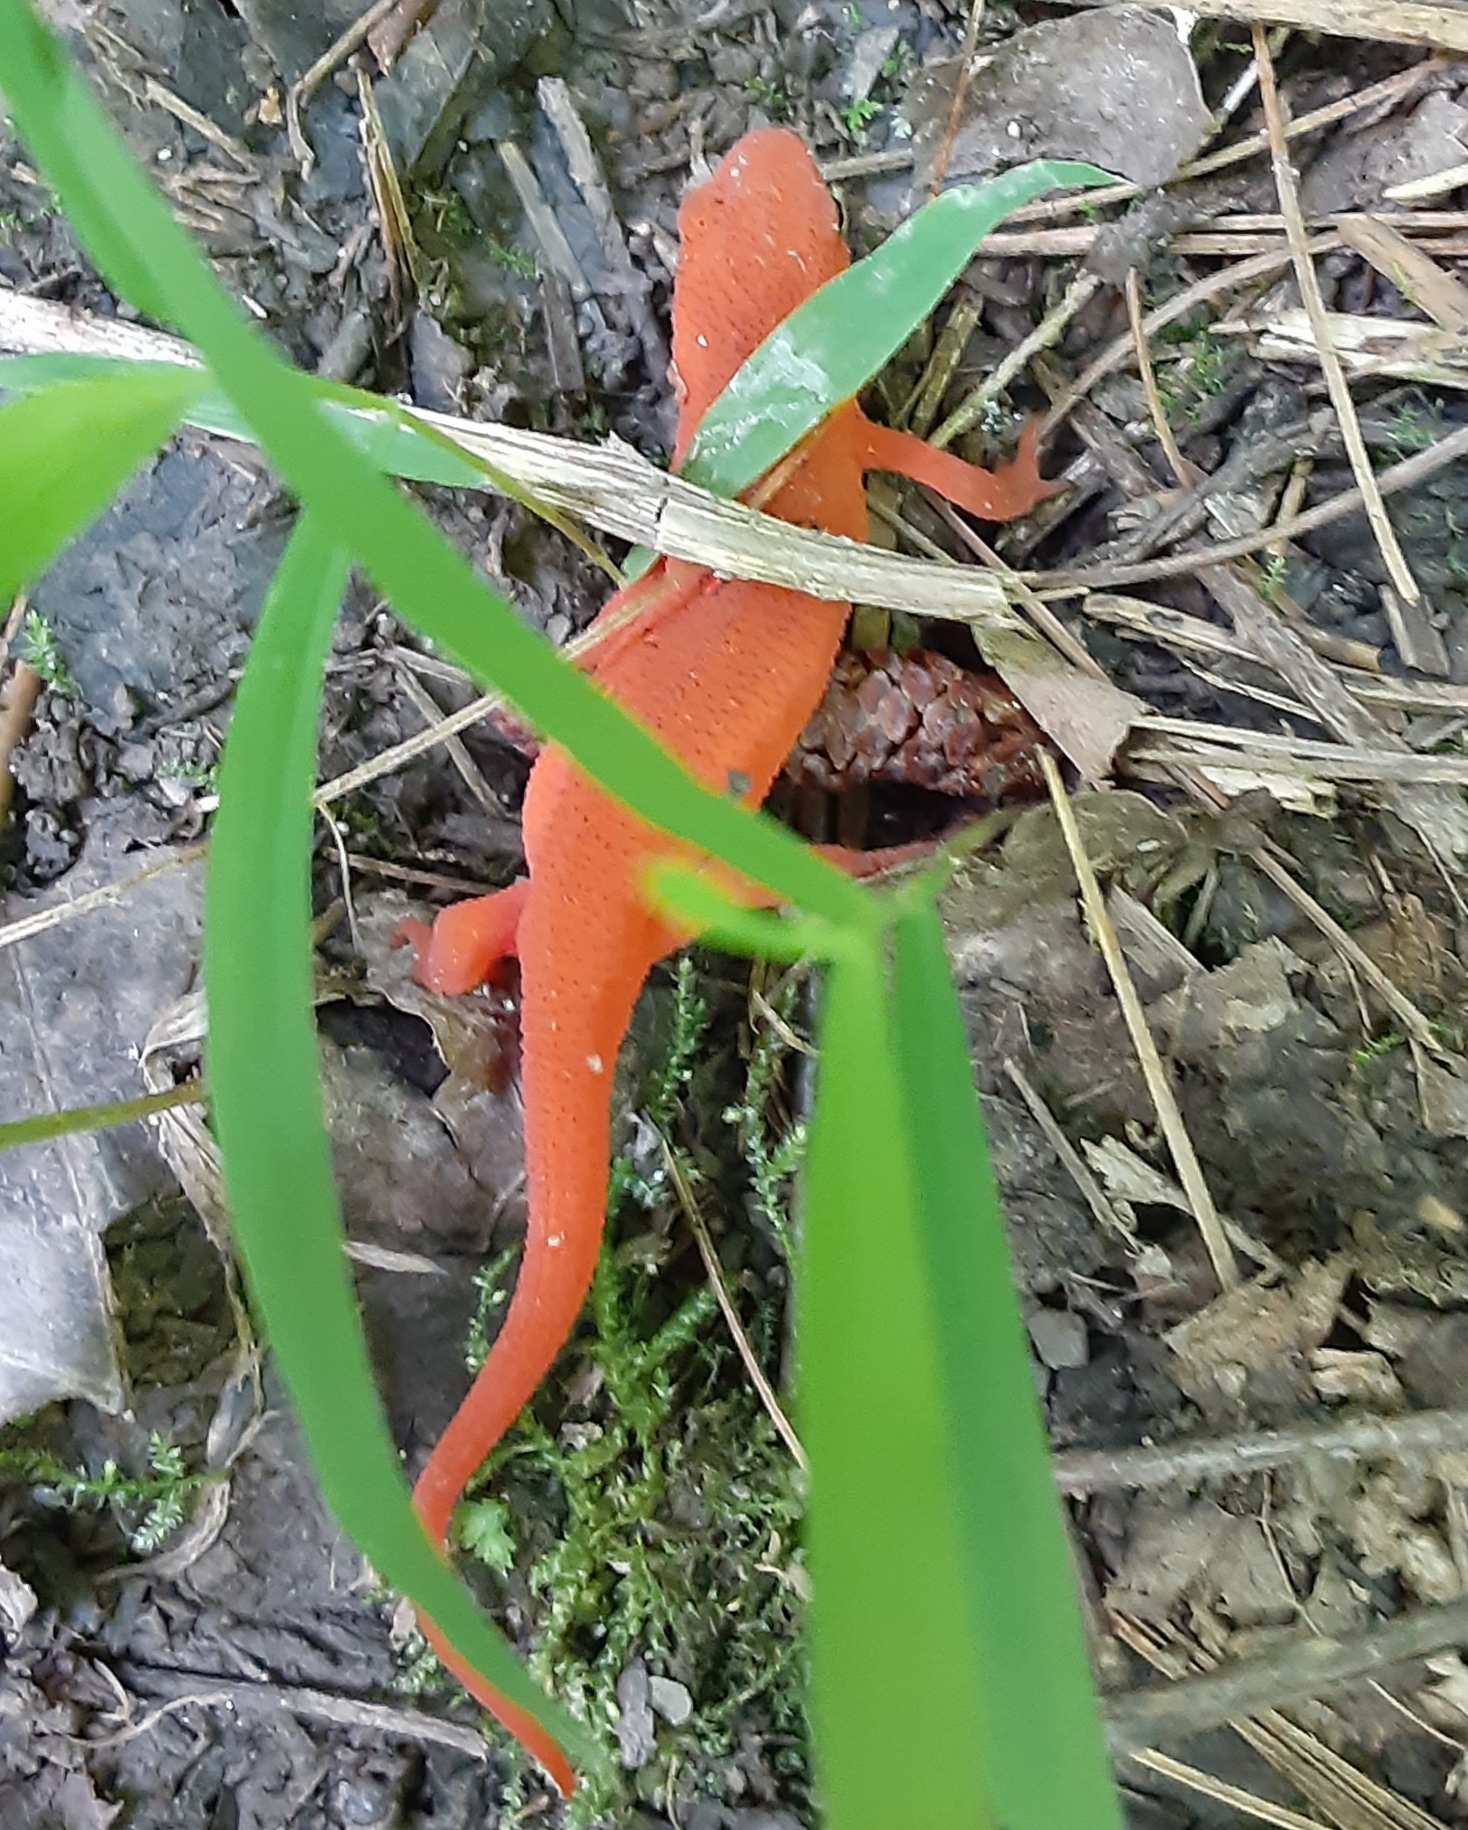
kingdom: Animalia
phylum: Chordata
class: Amphibia
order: Caudata
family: Salamandridae
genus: Notophthalmus
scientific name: Notophthalmus viridescens
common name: Eastern newt
